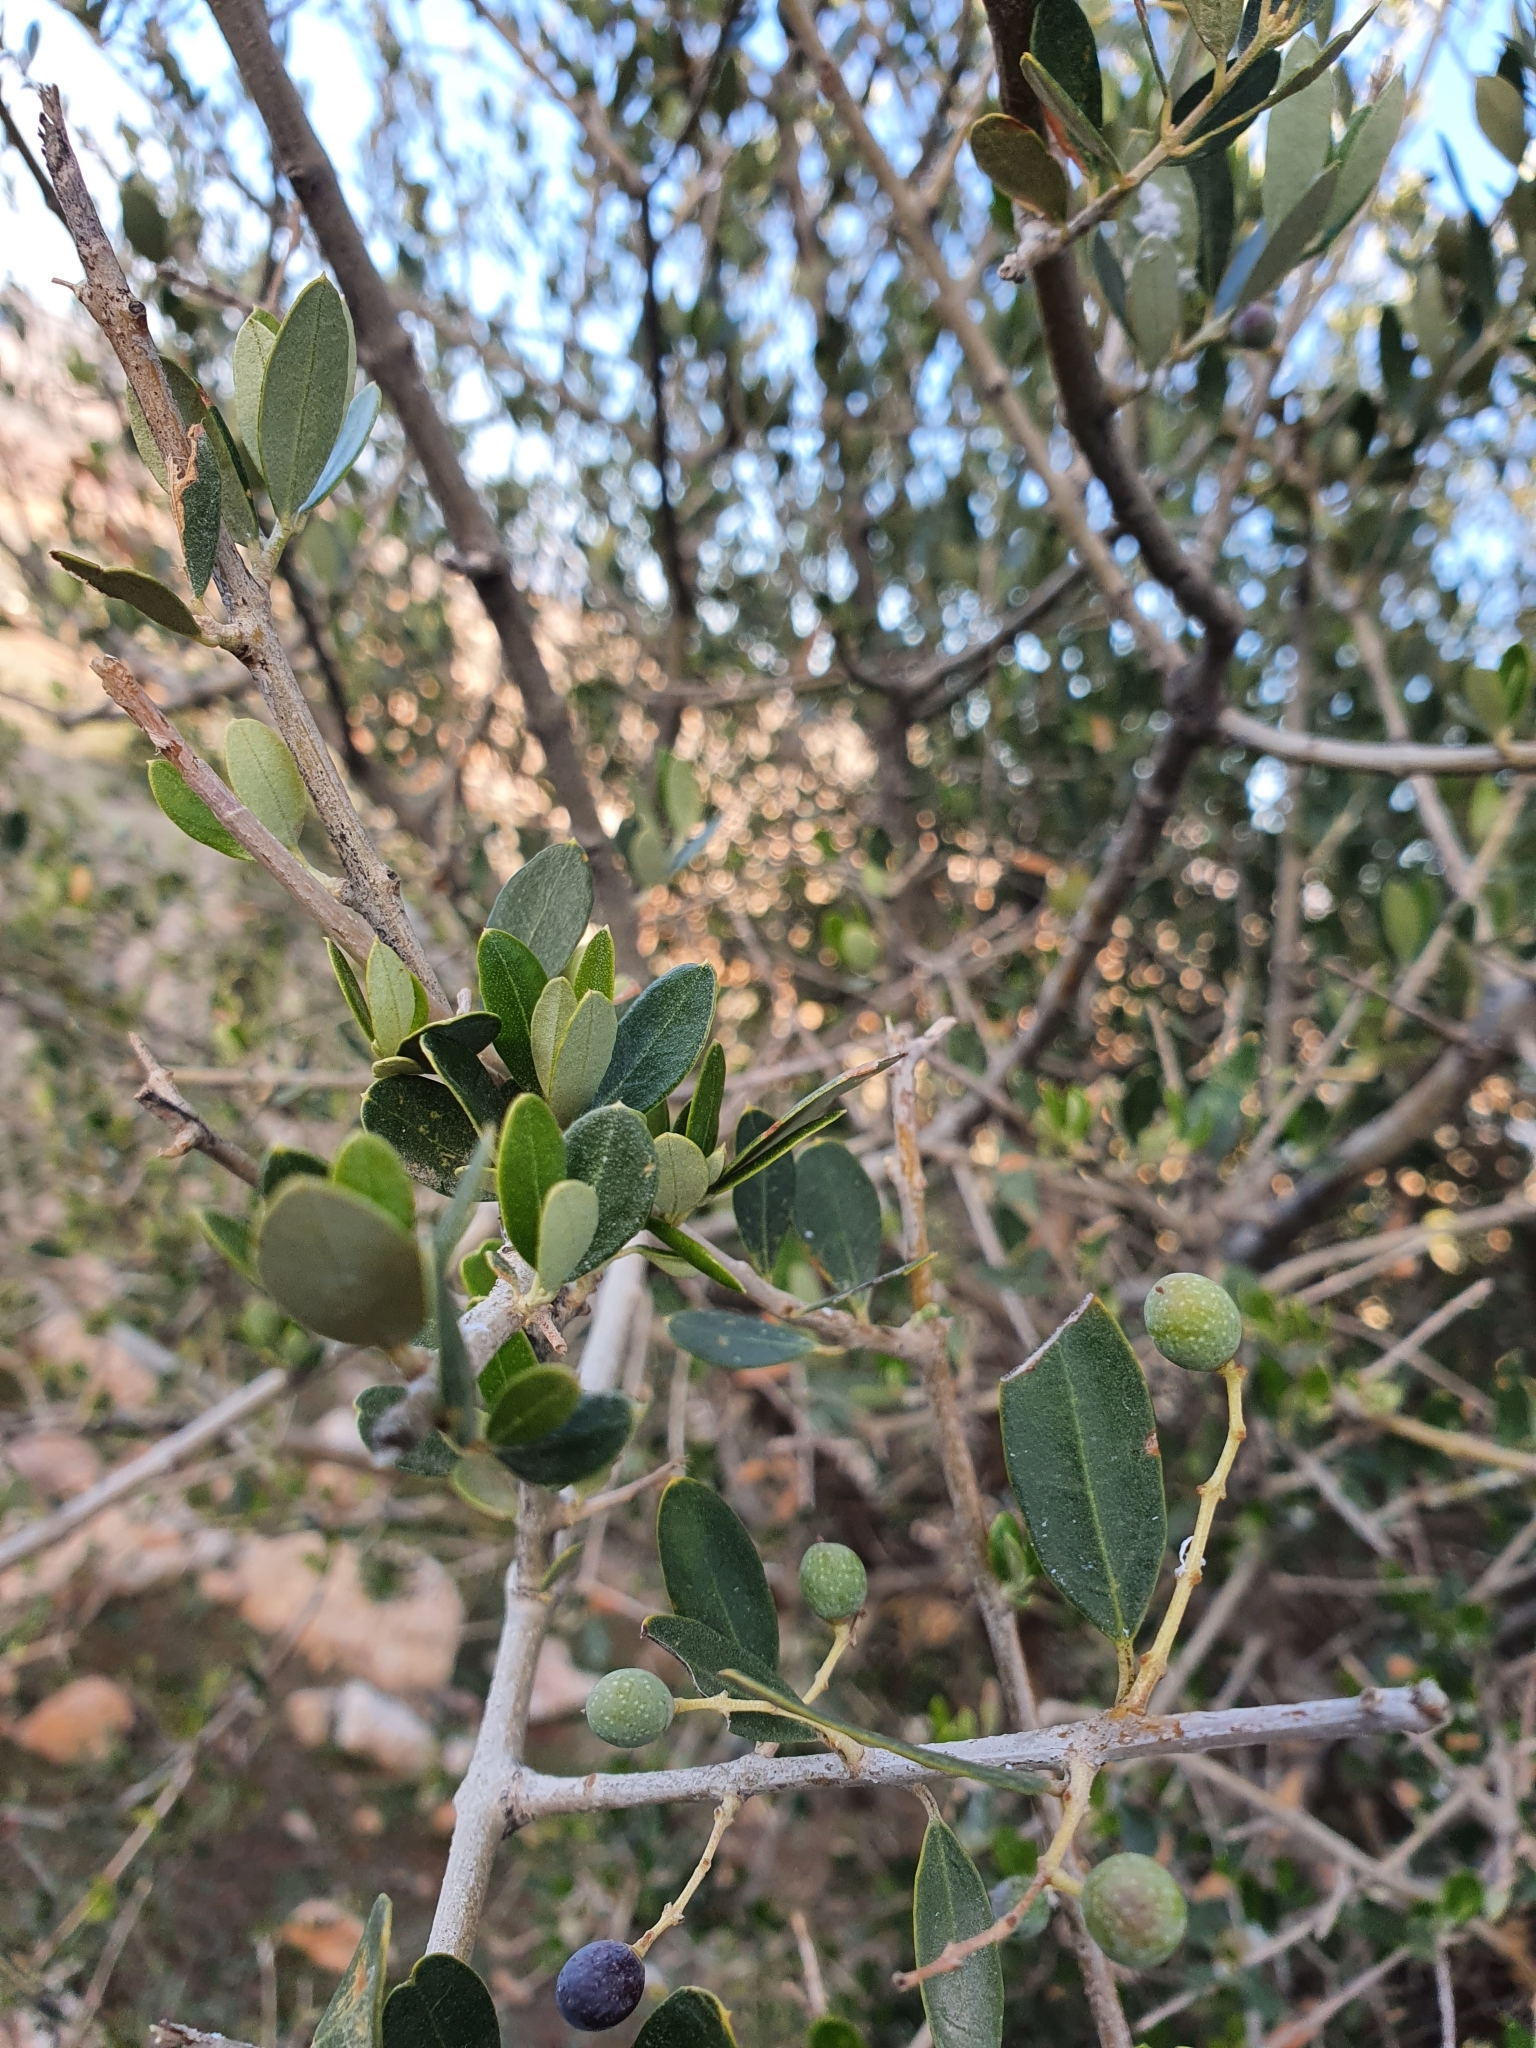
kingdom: Plantae
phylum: Tracheophyta
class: Magnoliopsida
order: Lamiales
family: Oleaceae
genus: Olea
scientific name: Olea europaea
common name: Olive
